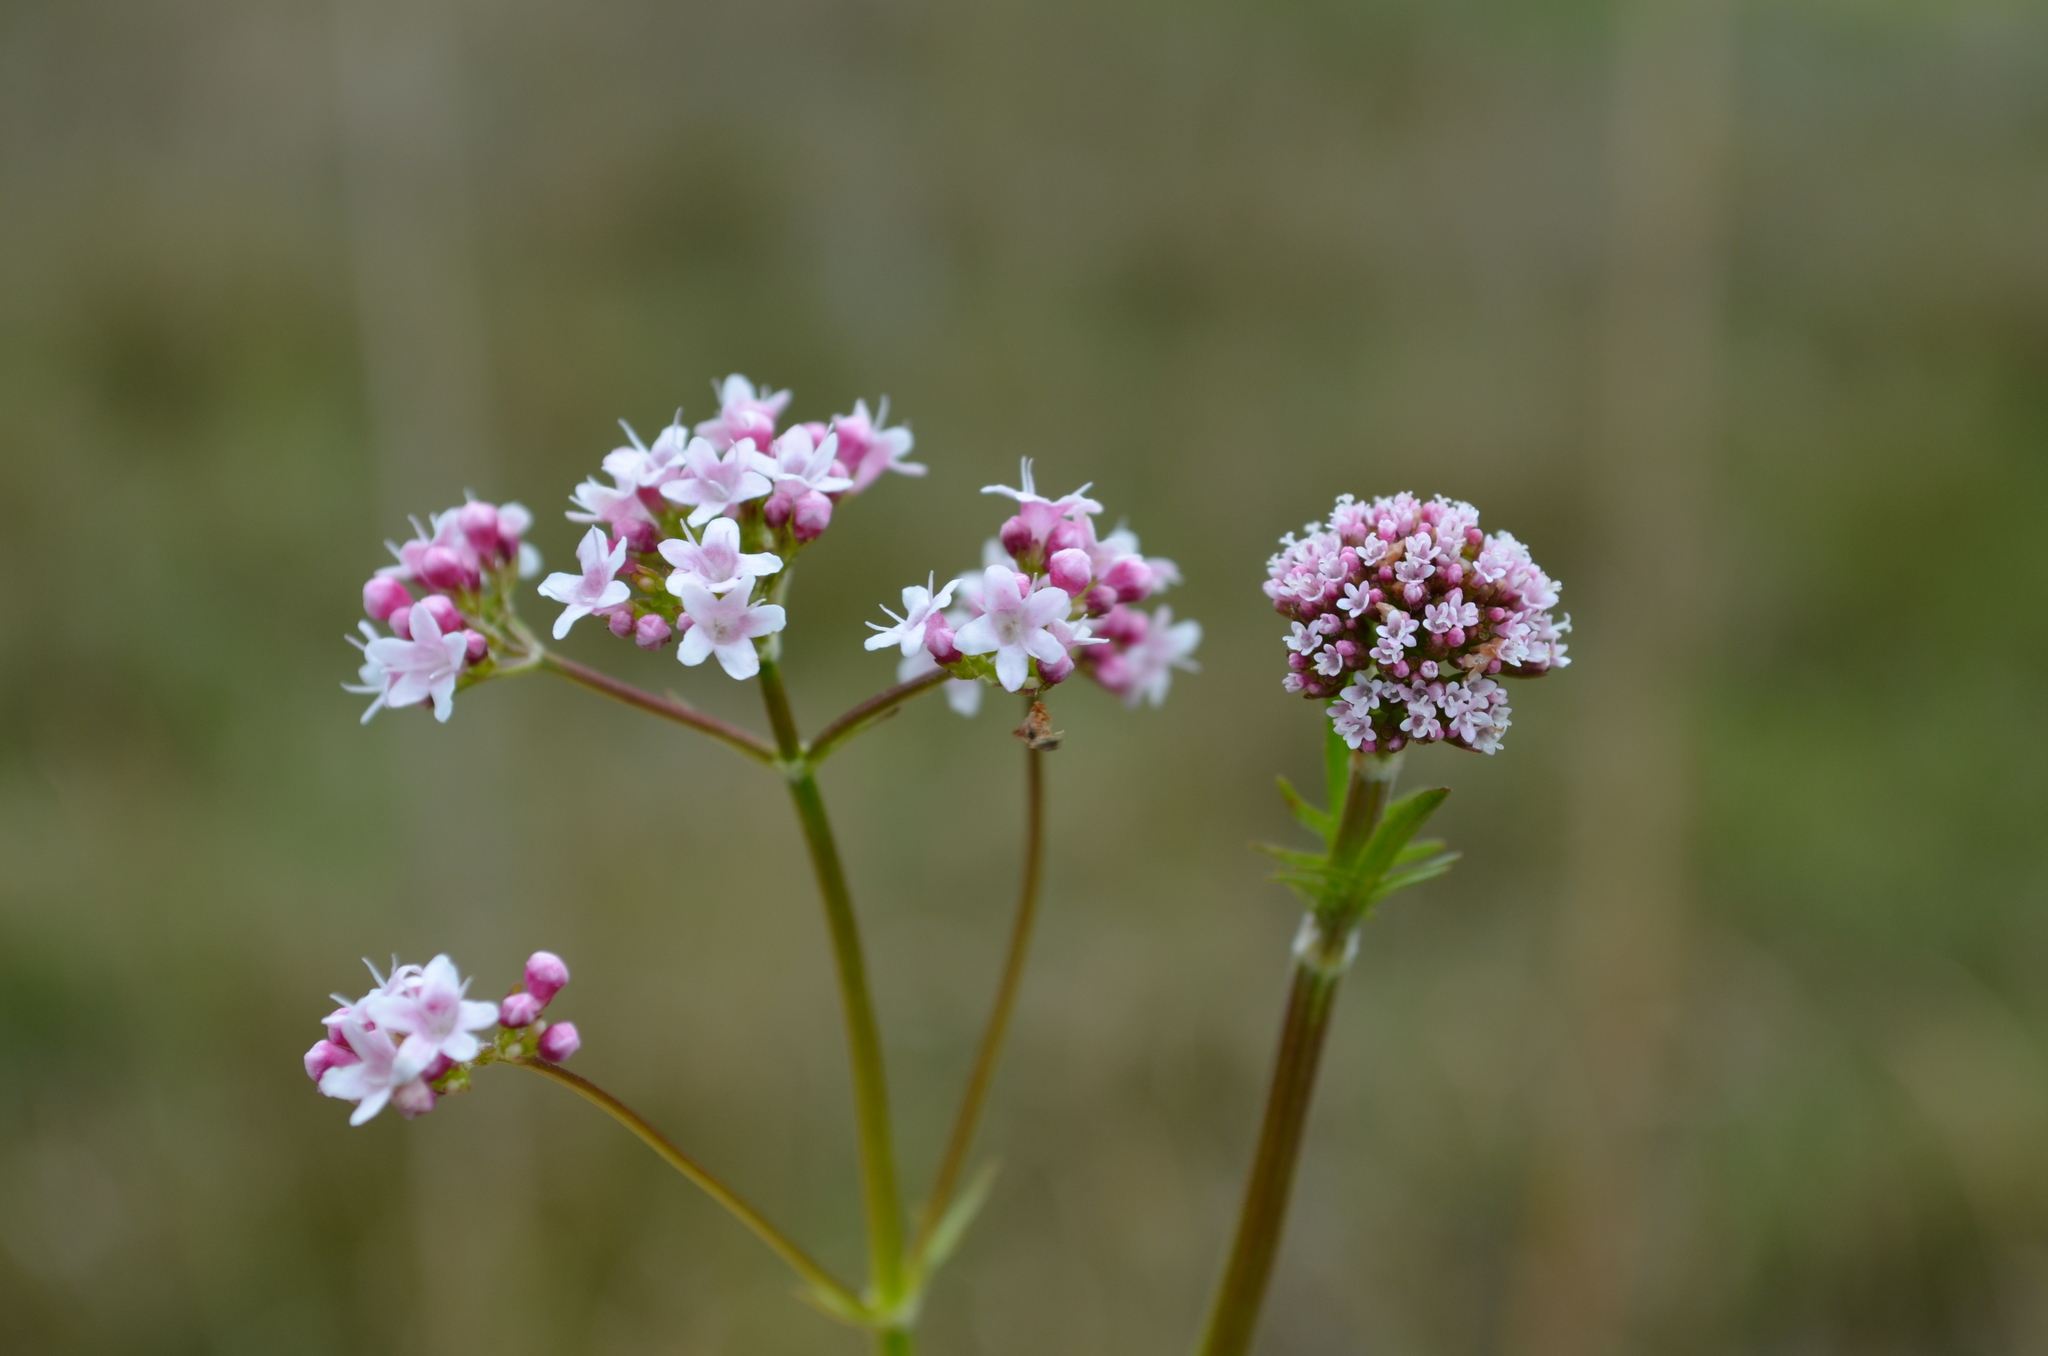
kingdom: Plantae
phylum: Tracheophyta
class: Magnoliopsida
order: Dipsacales
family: Caprifoliaceae
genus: Valeriana
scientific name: Valeriana dioica
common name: Marsh valerian
